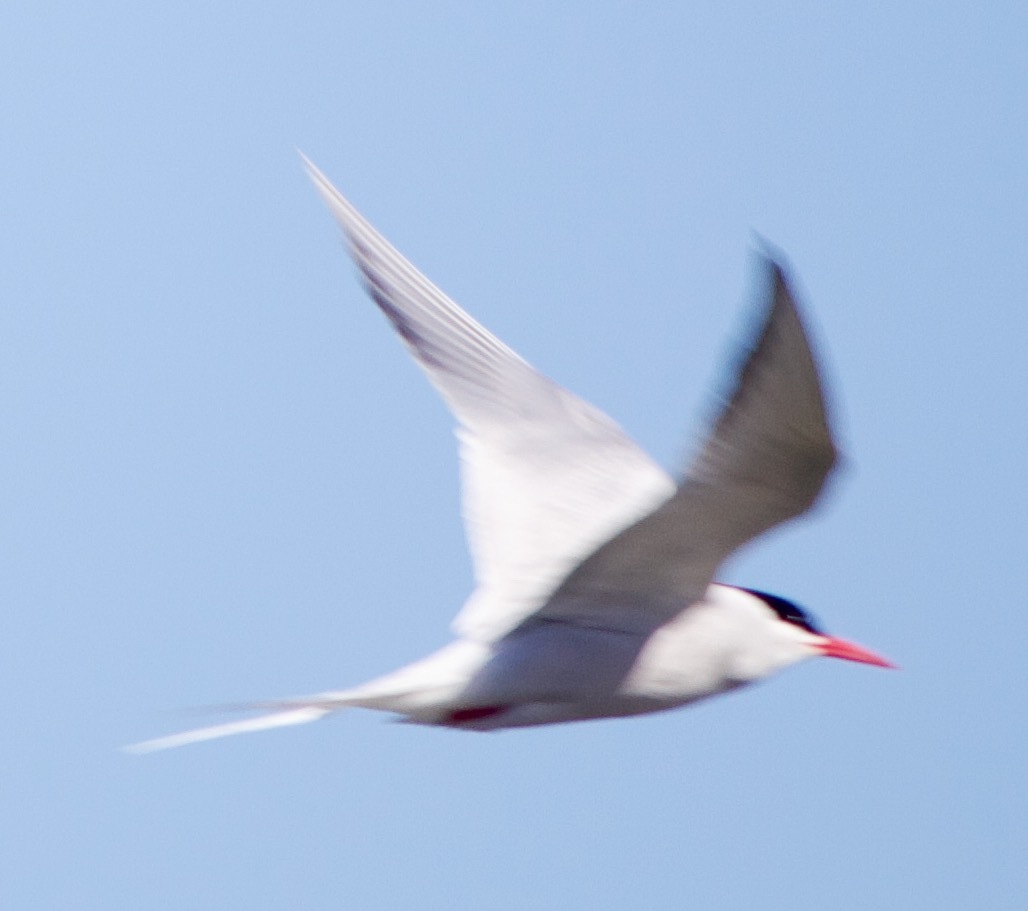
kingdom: Animalia
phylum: Chordata
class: Aves
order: Charadriiformes
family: Laridae
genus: Sterna
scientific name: Sterna hirundinacea
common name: South american tern
